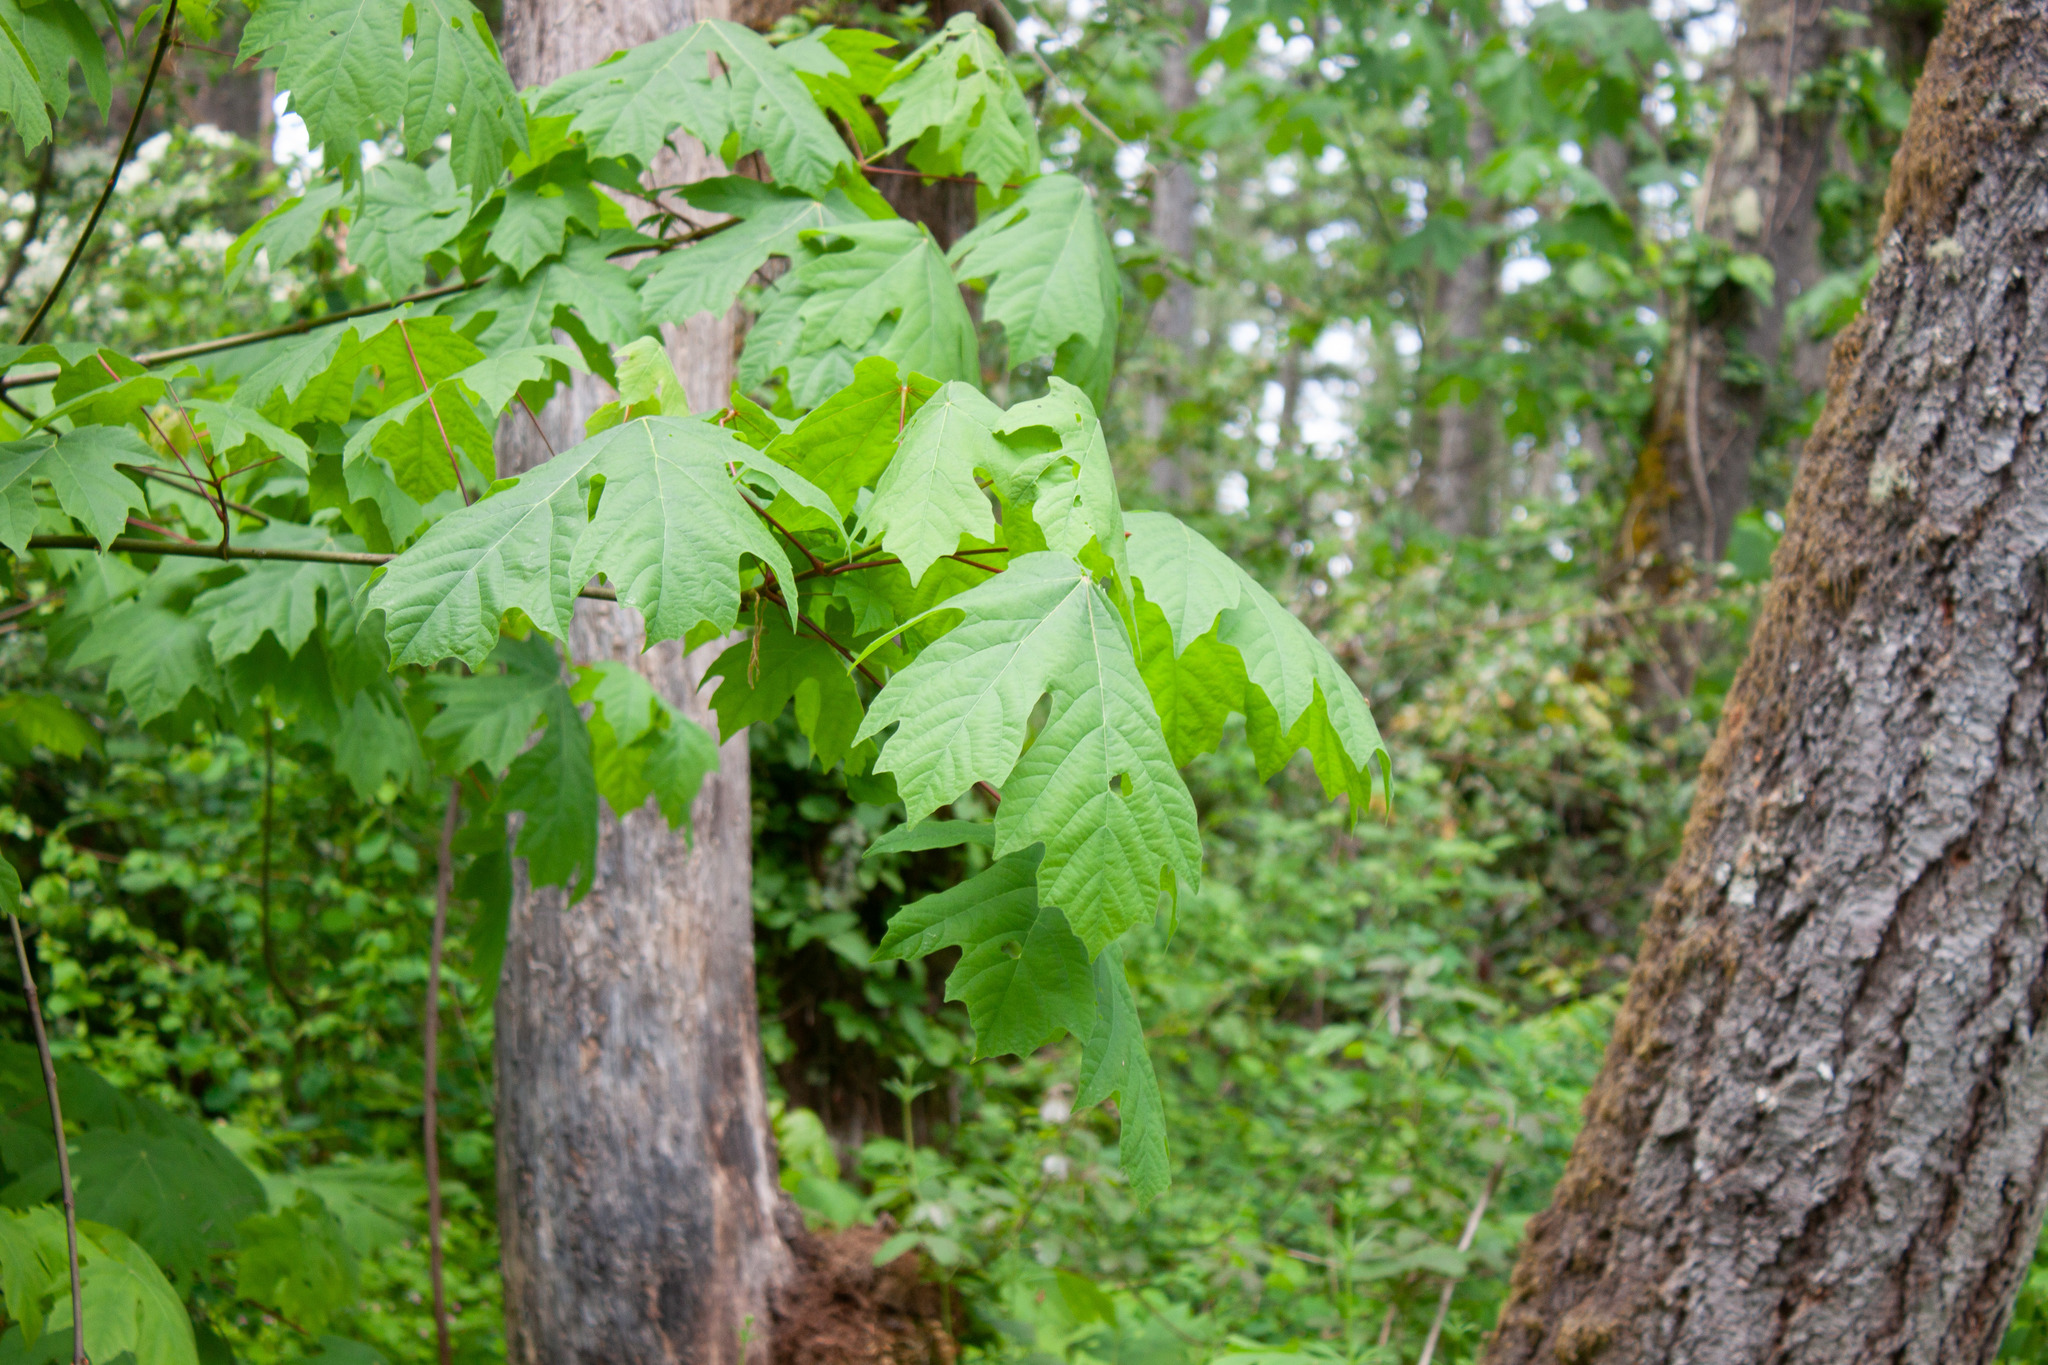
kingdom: Plantae
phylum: Tracheophyta
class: Magnoliopsida
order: Sapindales
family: Sapindaceae
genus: Acer
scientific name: Acer macrophyllum
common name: Oregon maple
